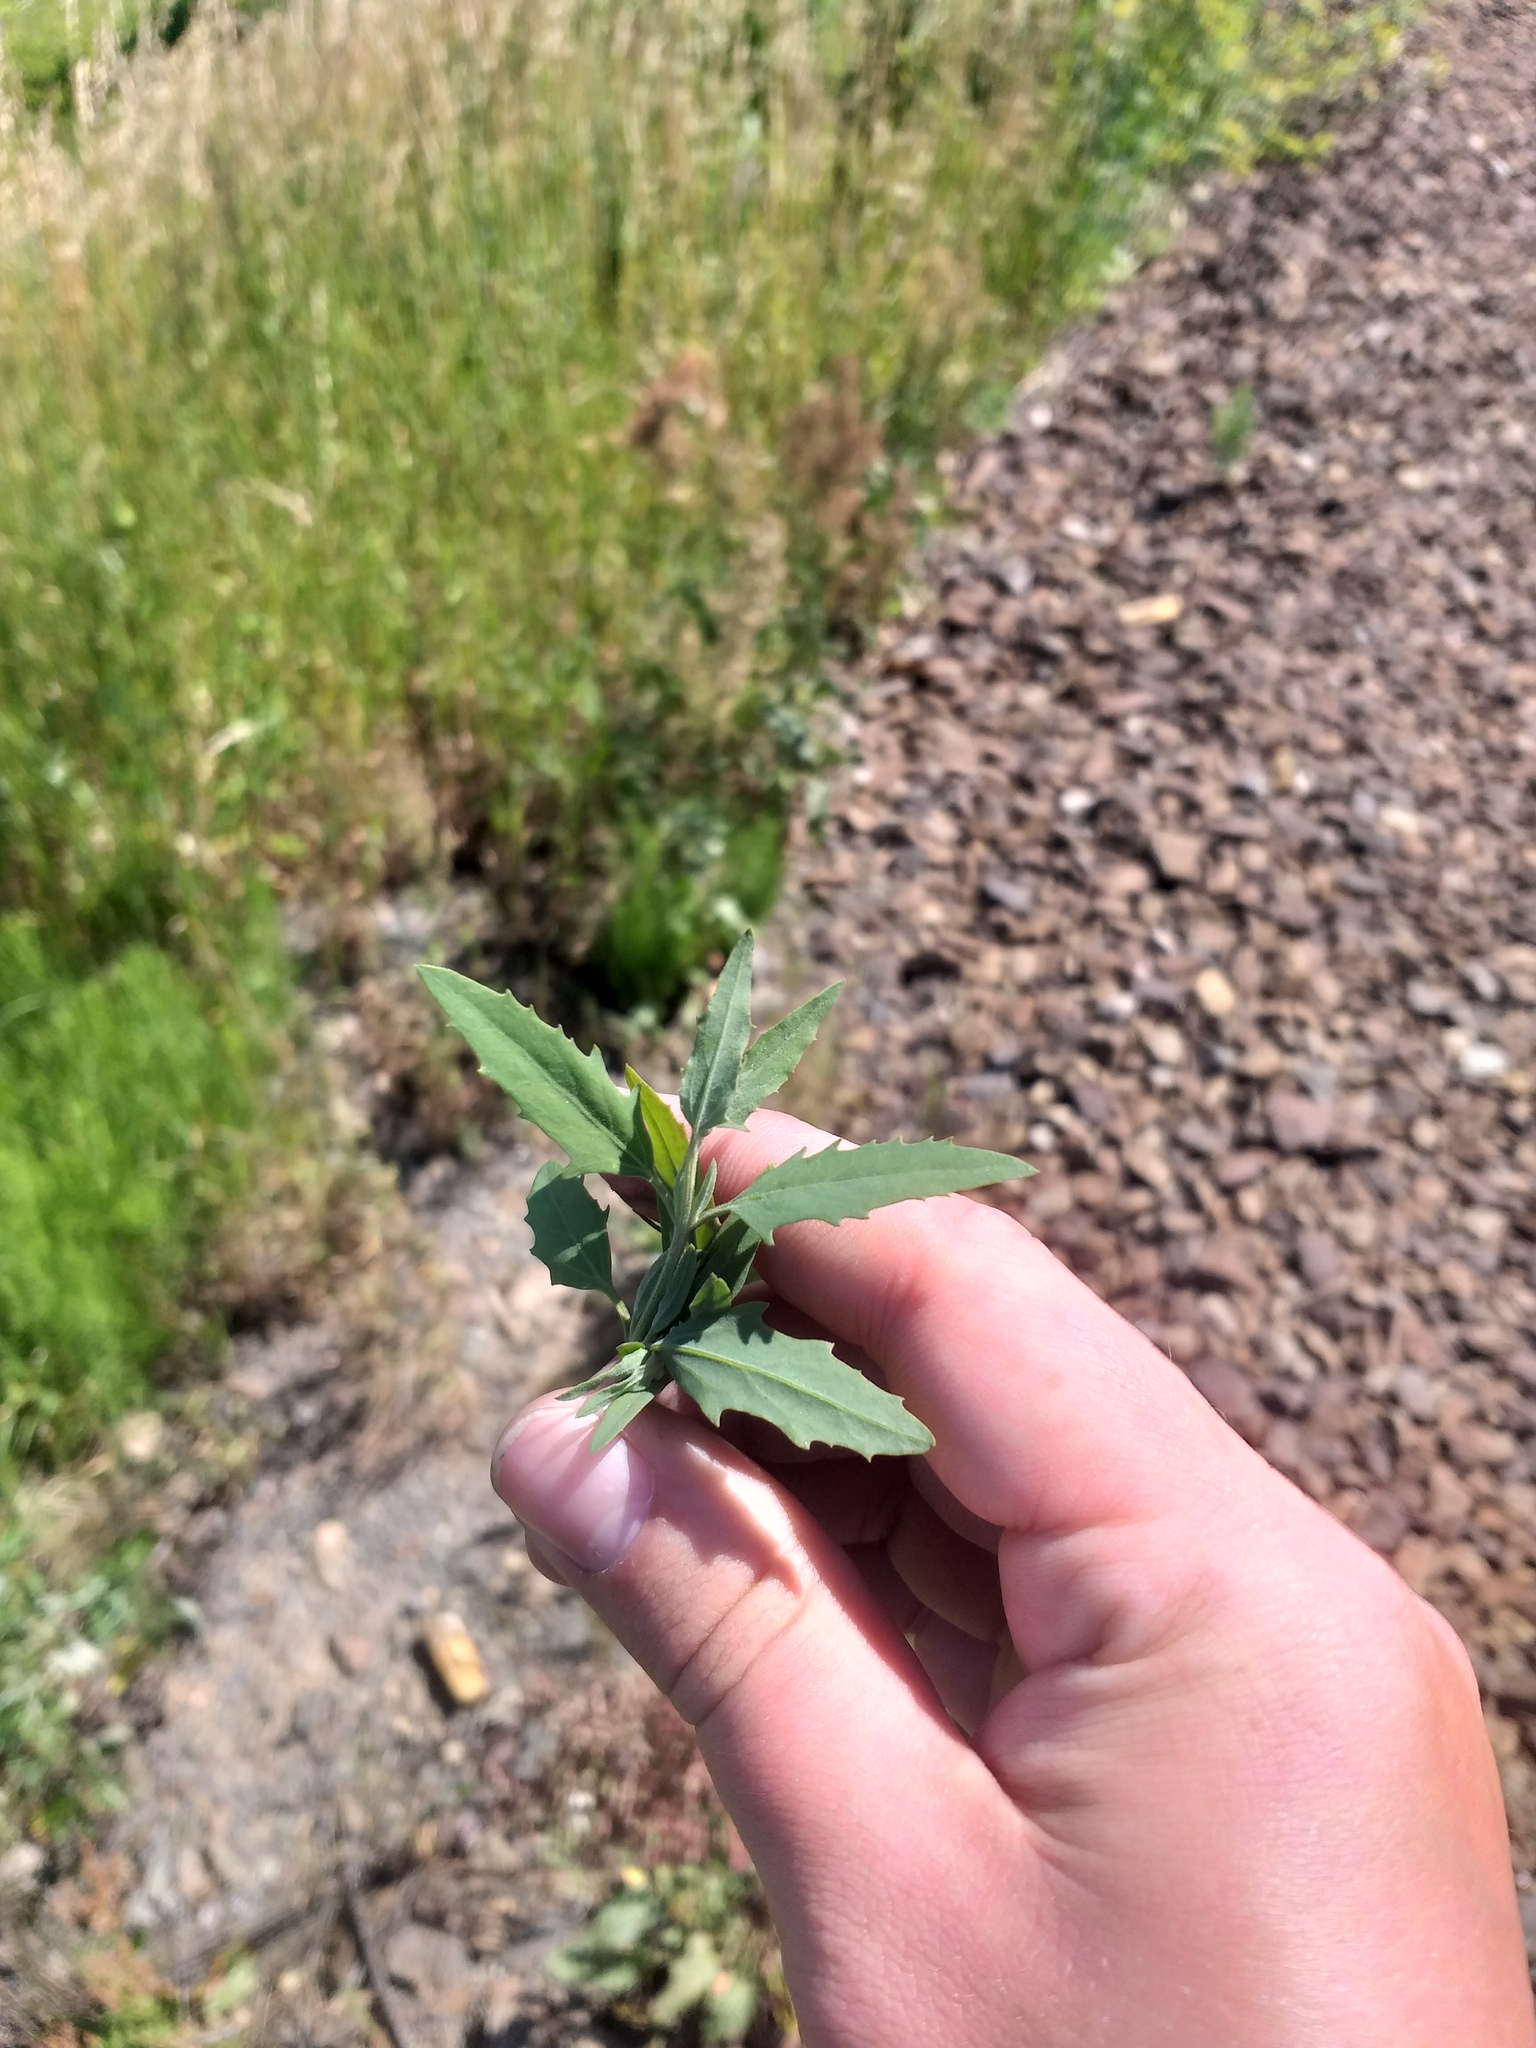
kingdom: Plantae
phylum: Tracheophyta
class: Magnoliopsida
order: Caryophyllales
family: Amaranthaceae
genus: Atriplex
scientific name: Atriplex oblongifolia
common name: Oblongleaf orache
